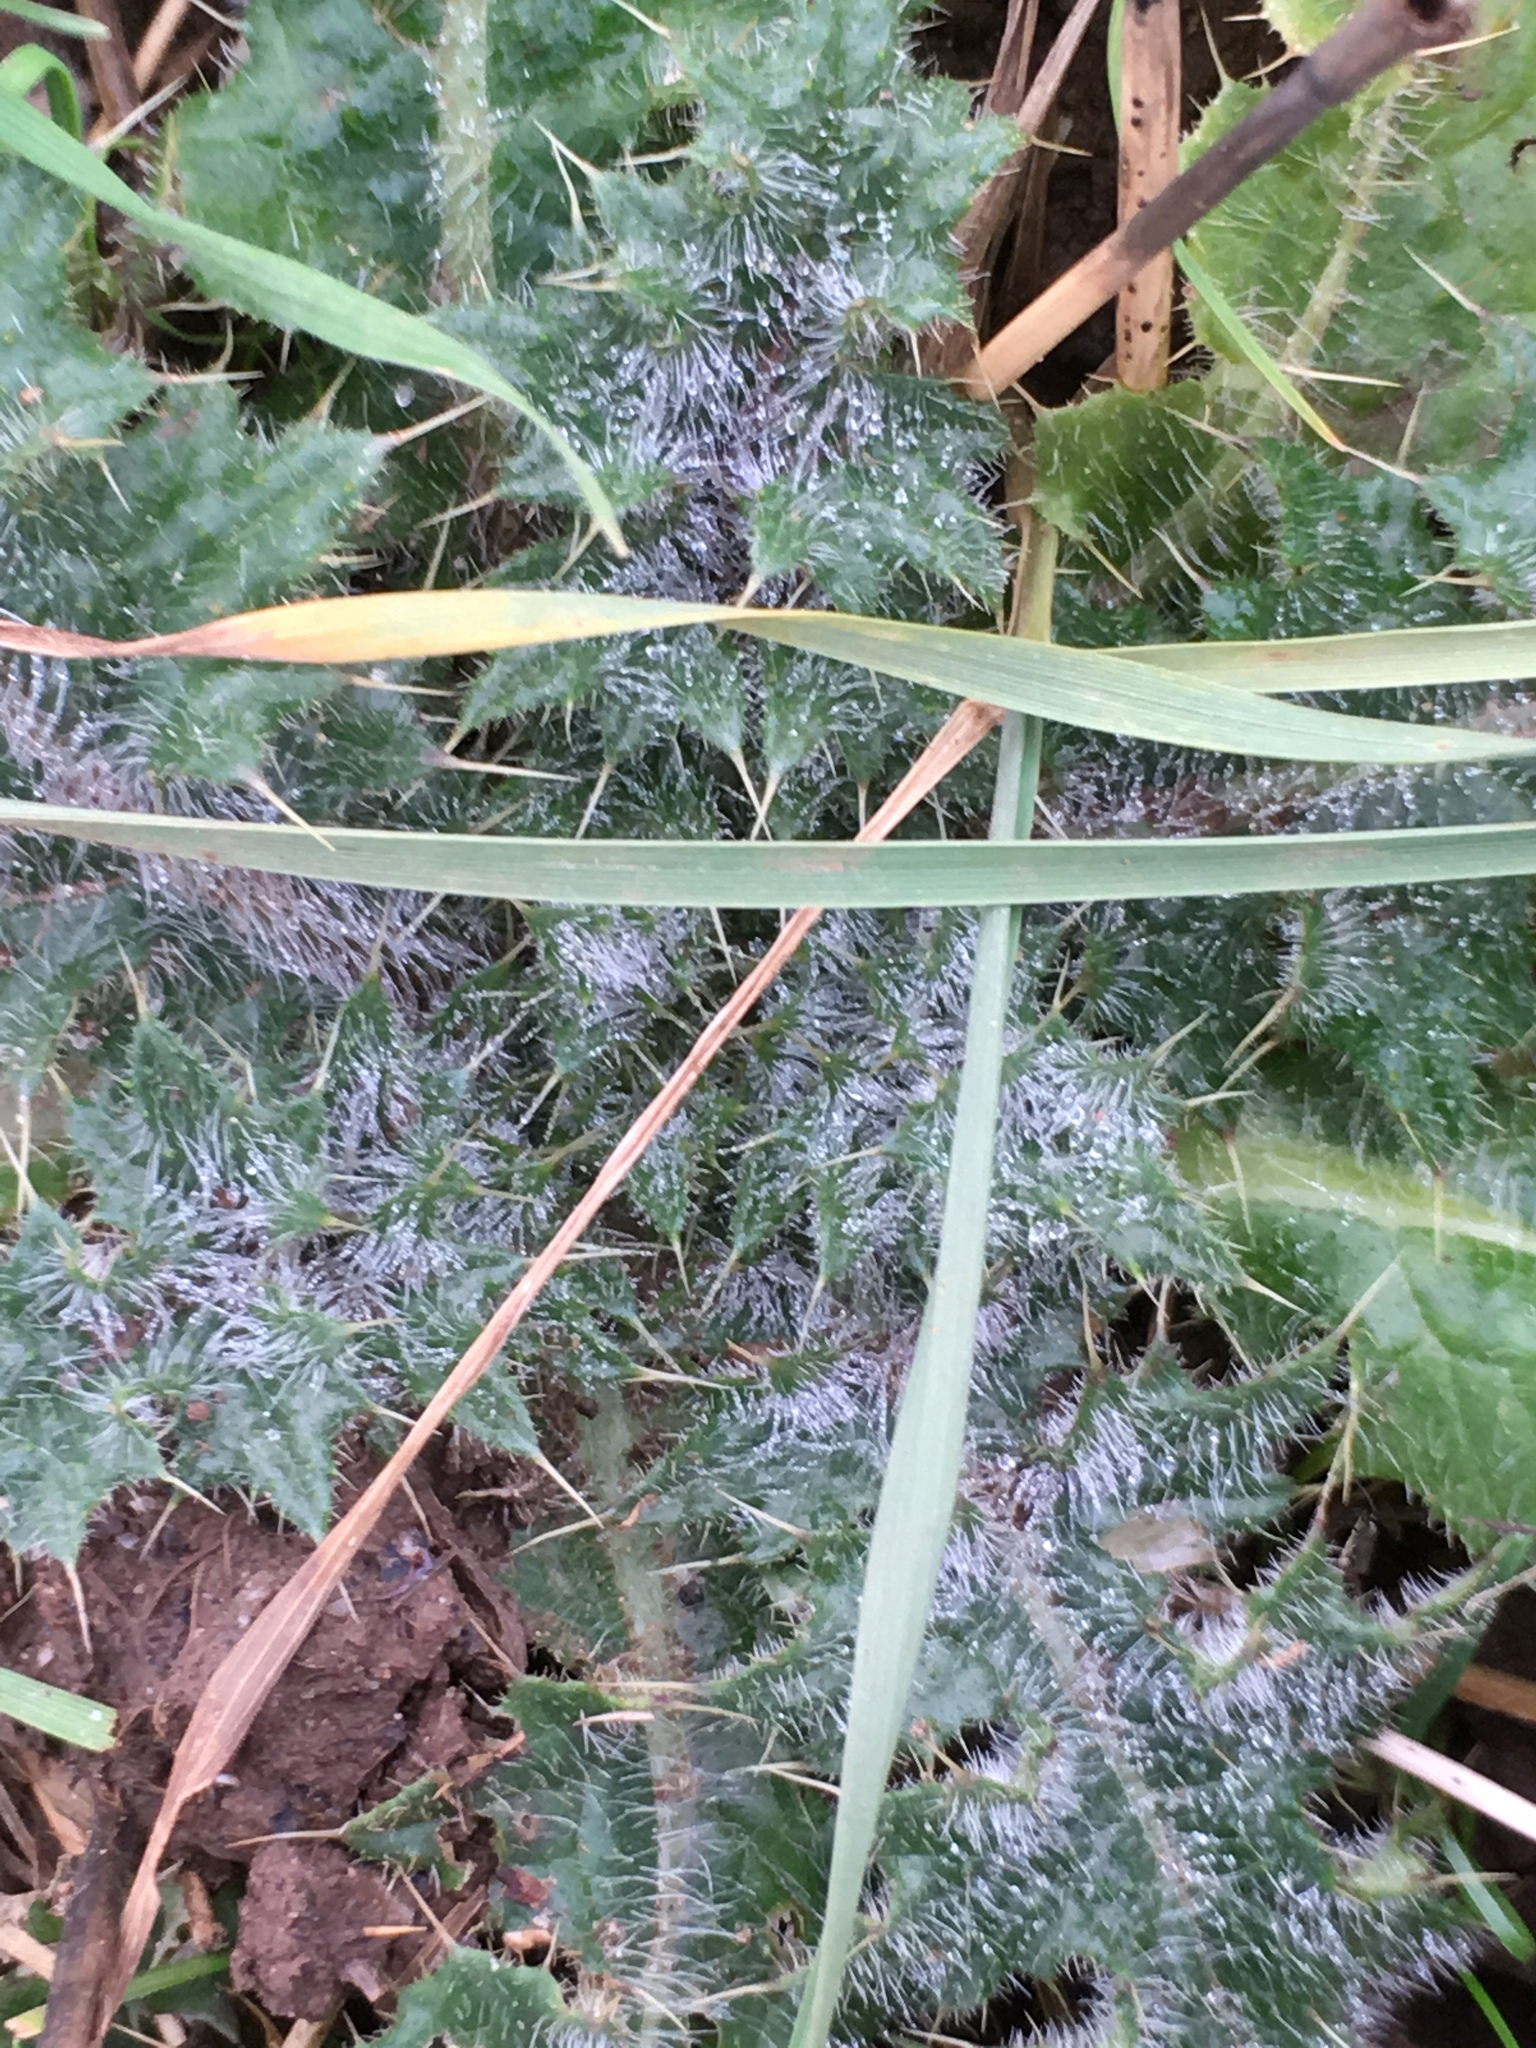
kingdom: Plantae
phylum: Tracheophyta
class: Magnoliopsida
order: Asterales
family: Asteraceae
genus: Cirsium
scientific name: Cirsium vulgare
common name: Bull thistle
